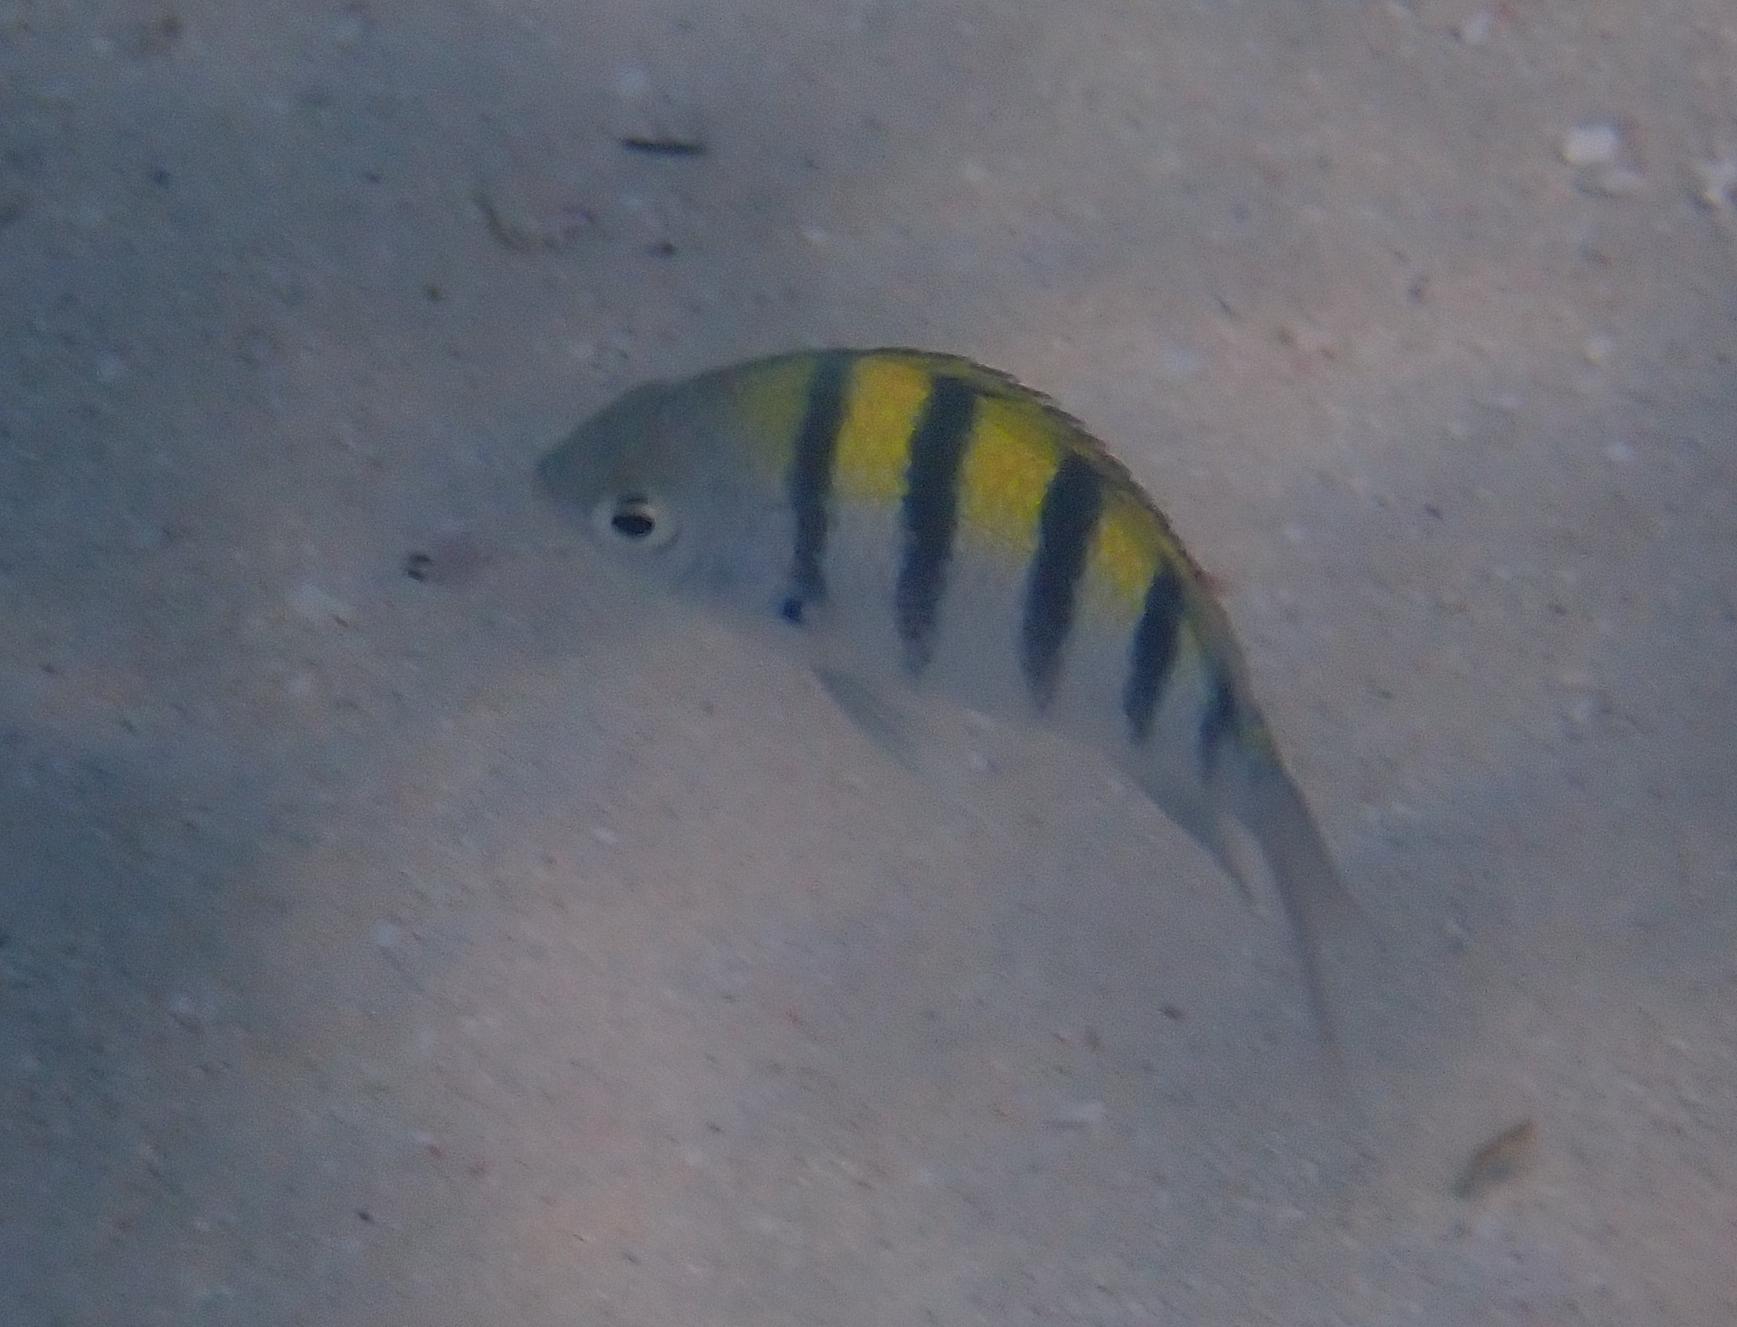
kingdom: Animalia
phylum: Chordata
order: Perciformes
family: Pomacentridae
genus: Abudefduf
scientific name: Abudefduf saxatilis
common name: Sergeant major
